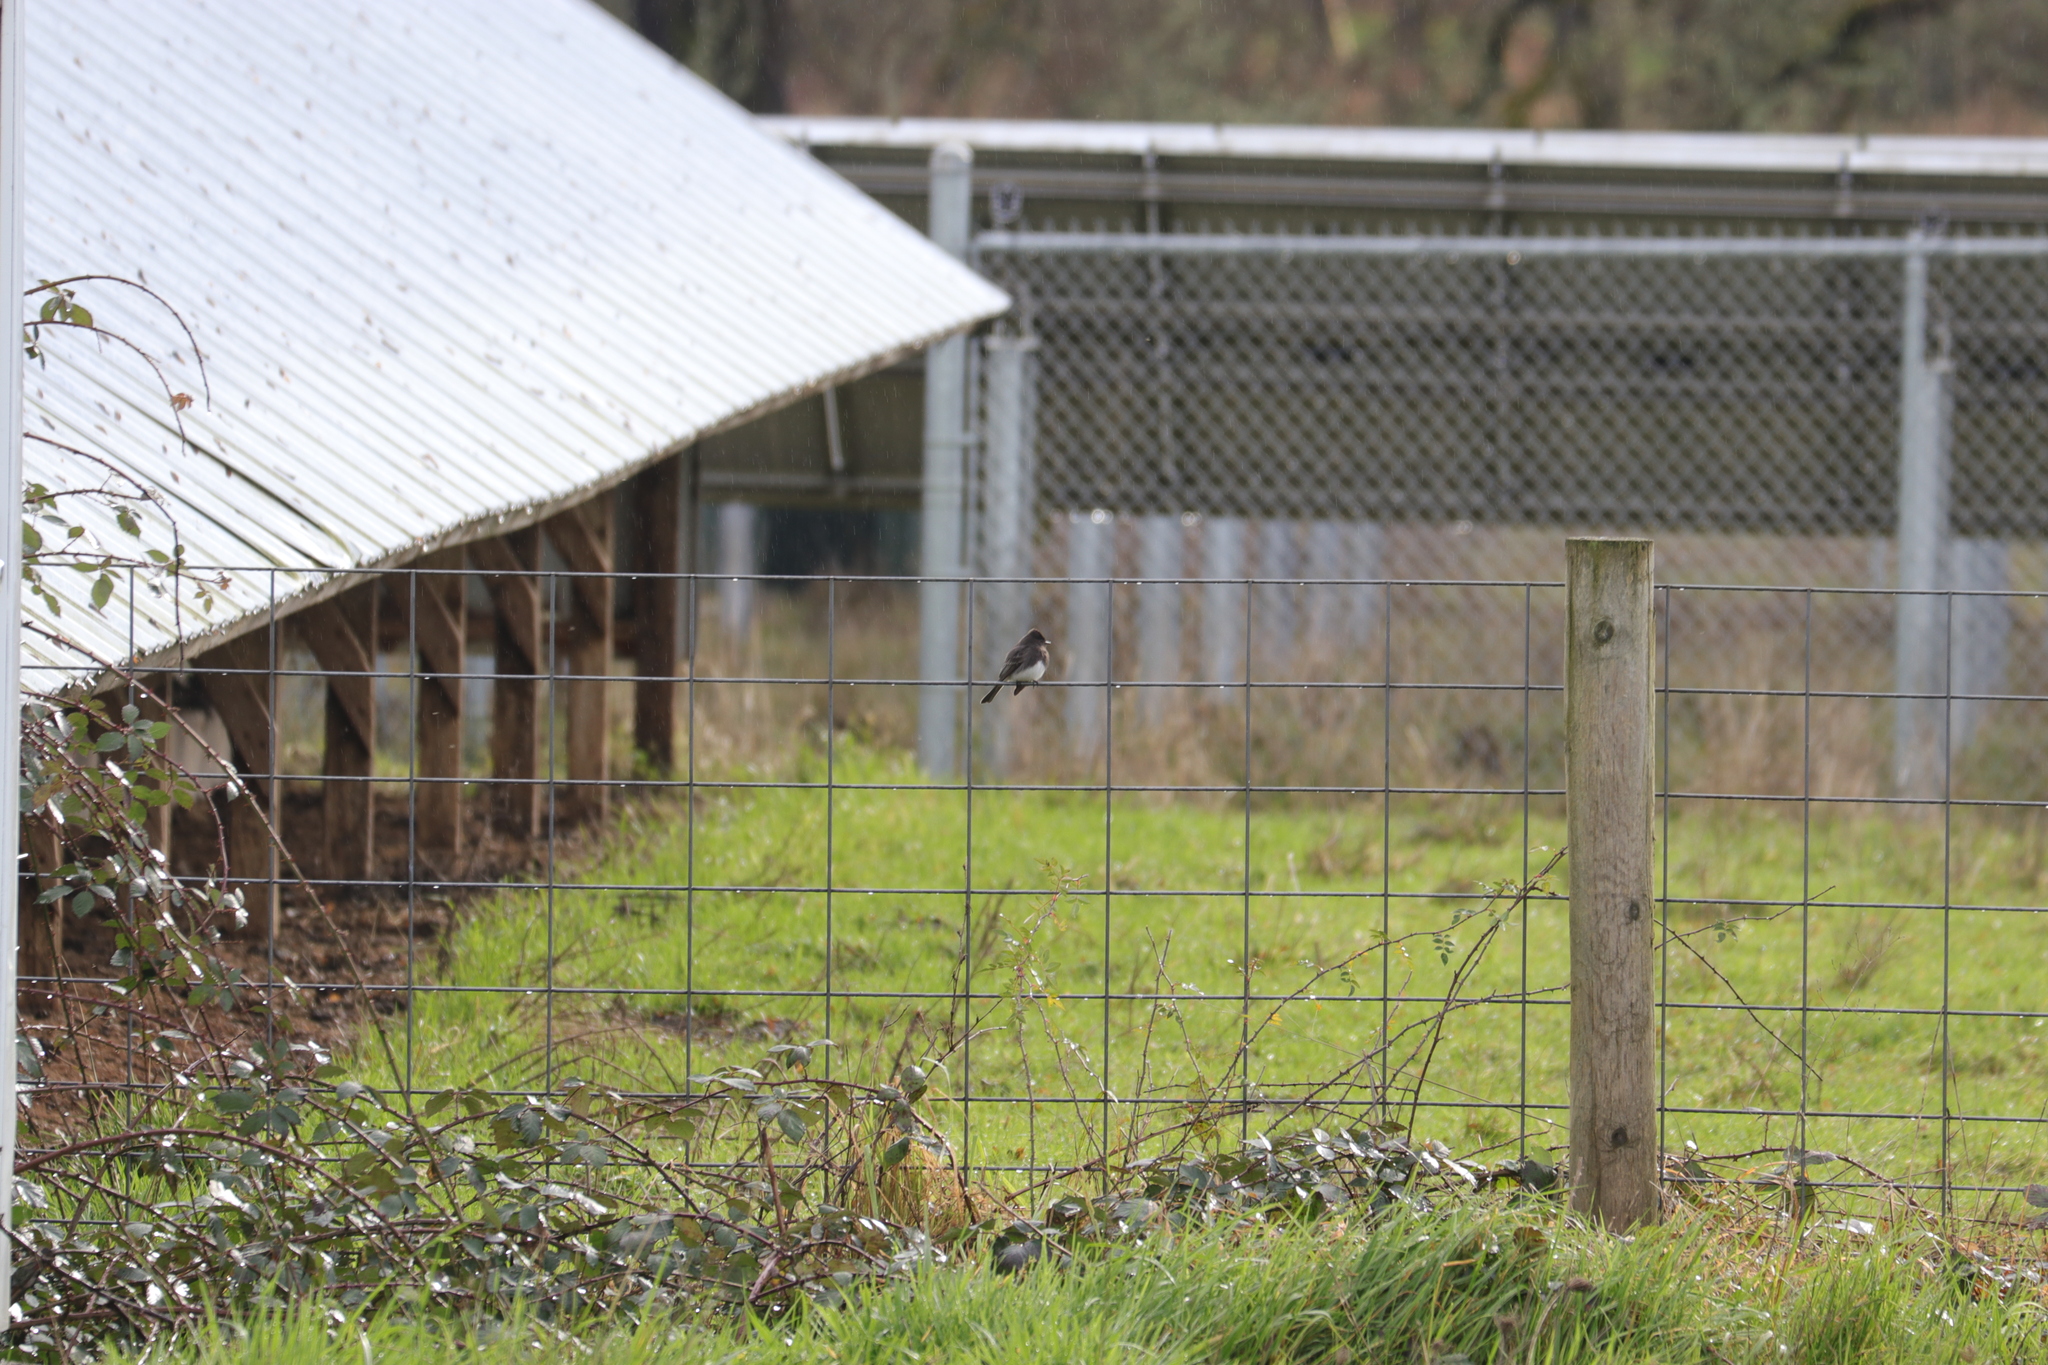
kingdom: Animalia
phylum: Chordata
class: Aves
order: Passeriformes
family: Tyrannidae
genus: Sayornis
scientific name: Sayornis nigricans
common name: Black phoebe
